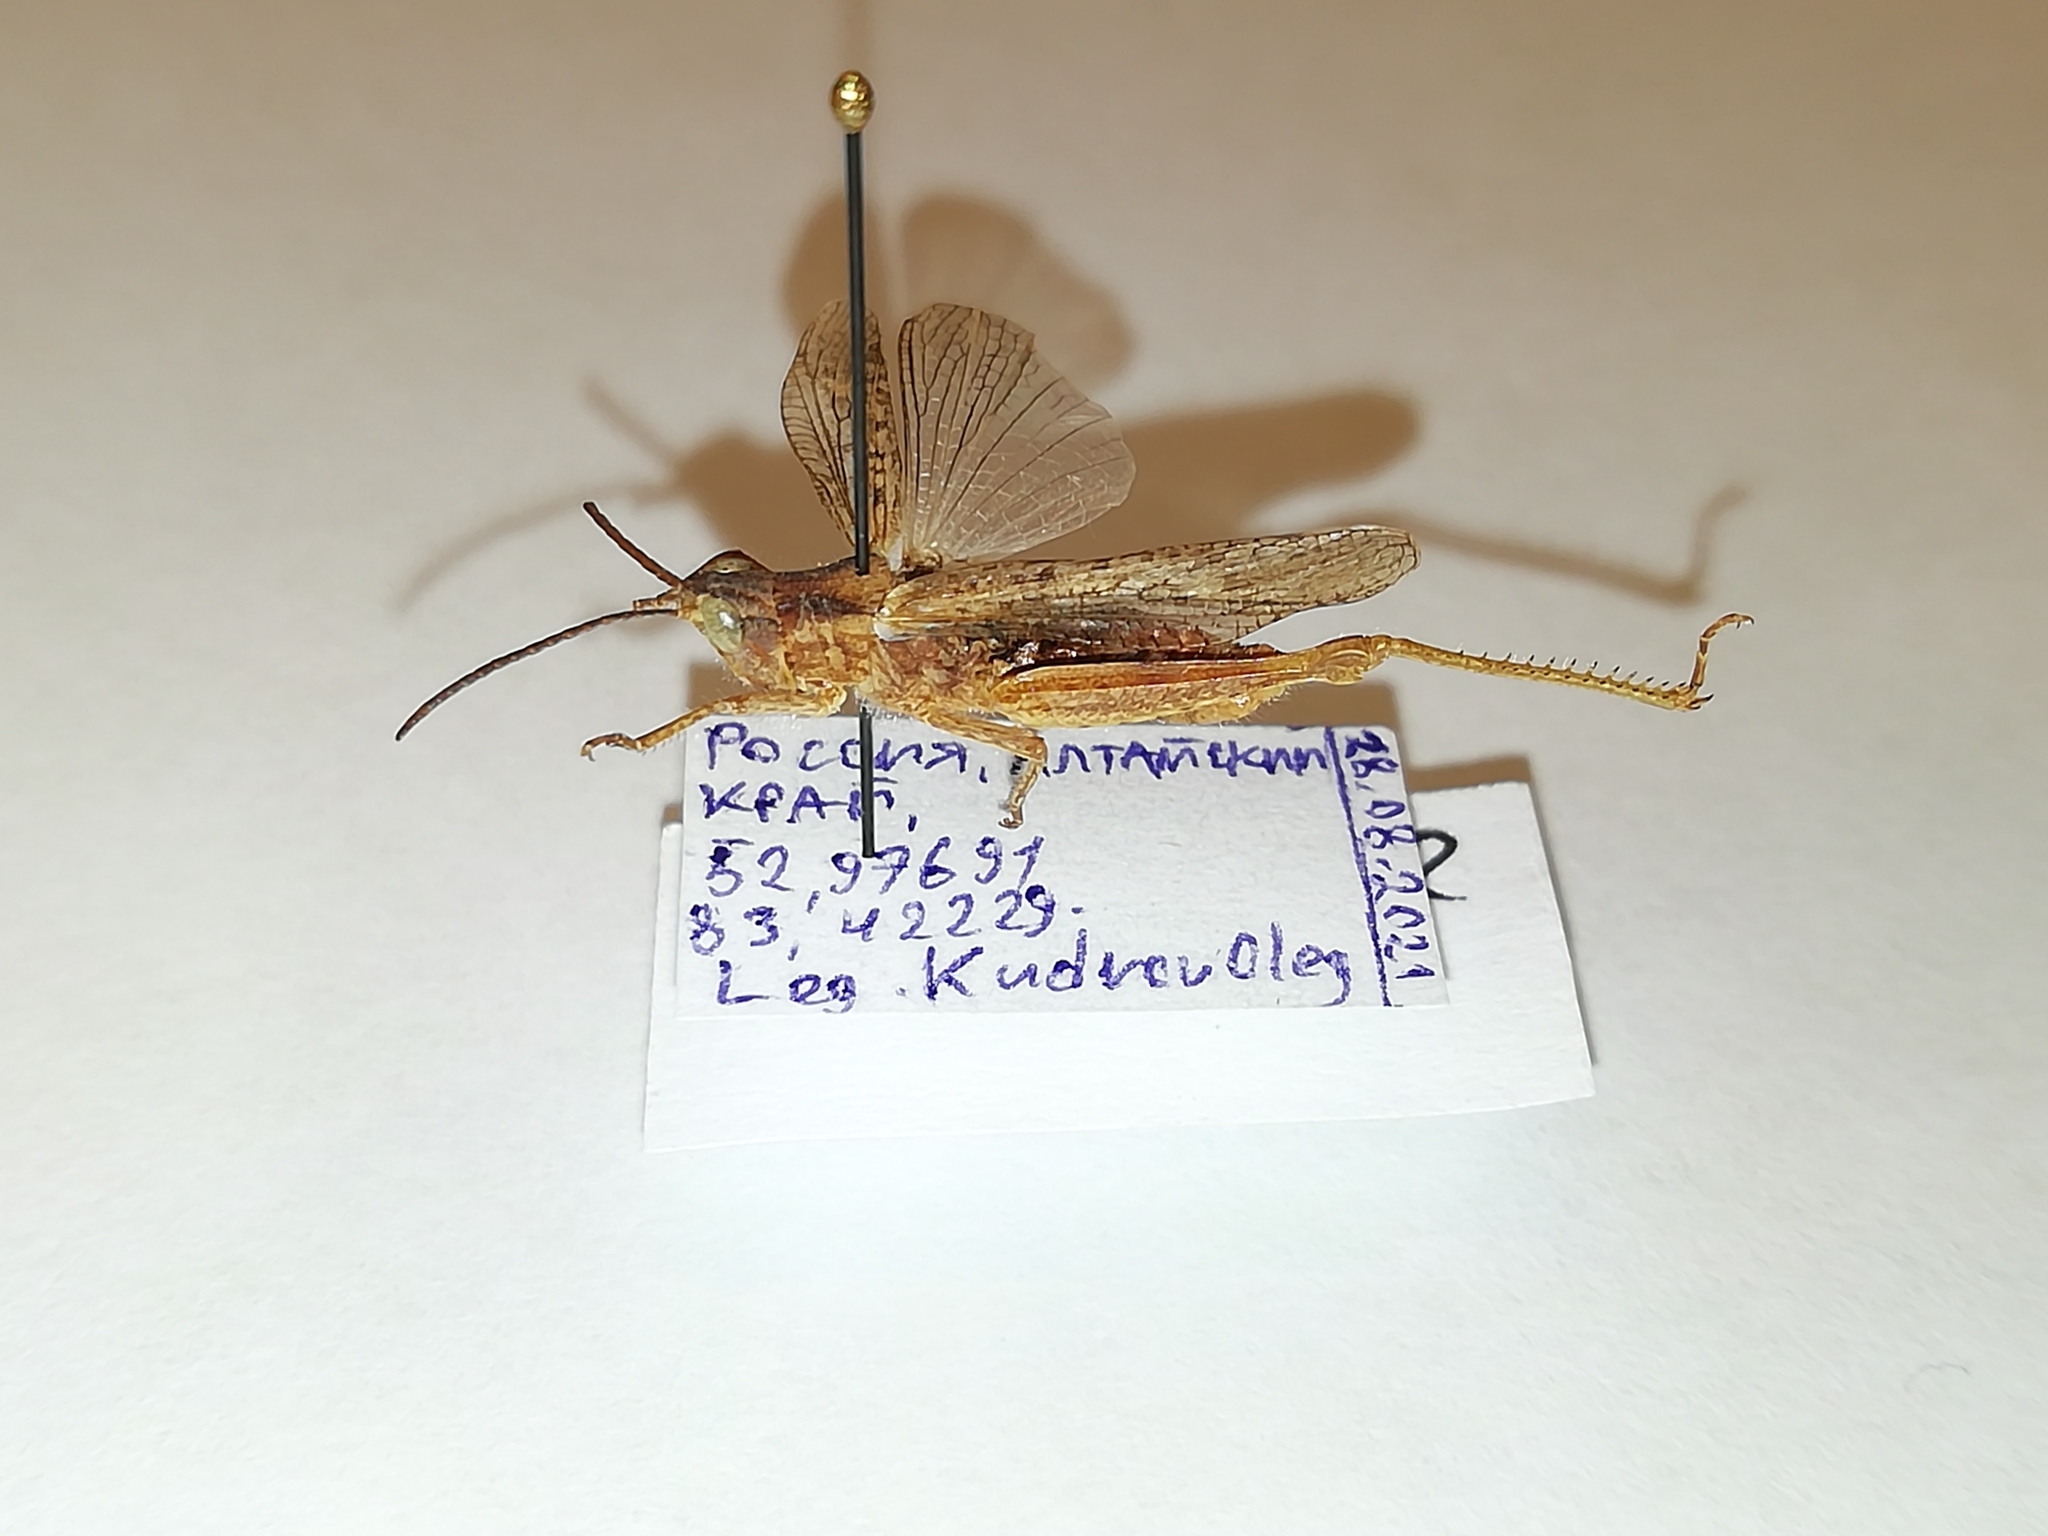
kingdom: Animalia
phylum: Arthropoda
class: Insecta
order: Orthoptera
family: Acrididae
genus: Chorthippus
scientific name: Chorthippus miramae
